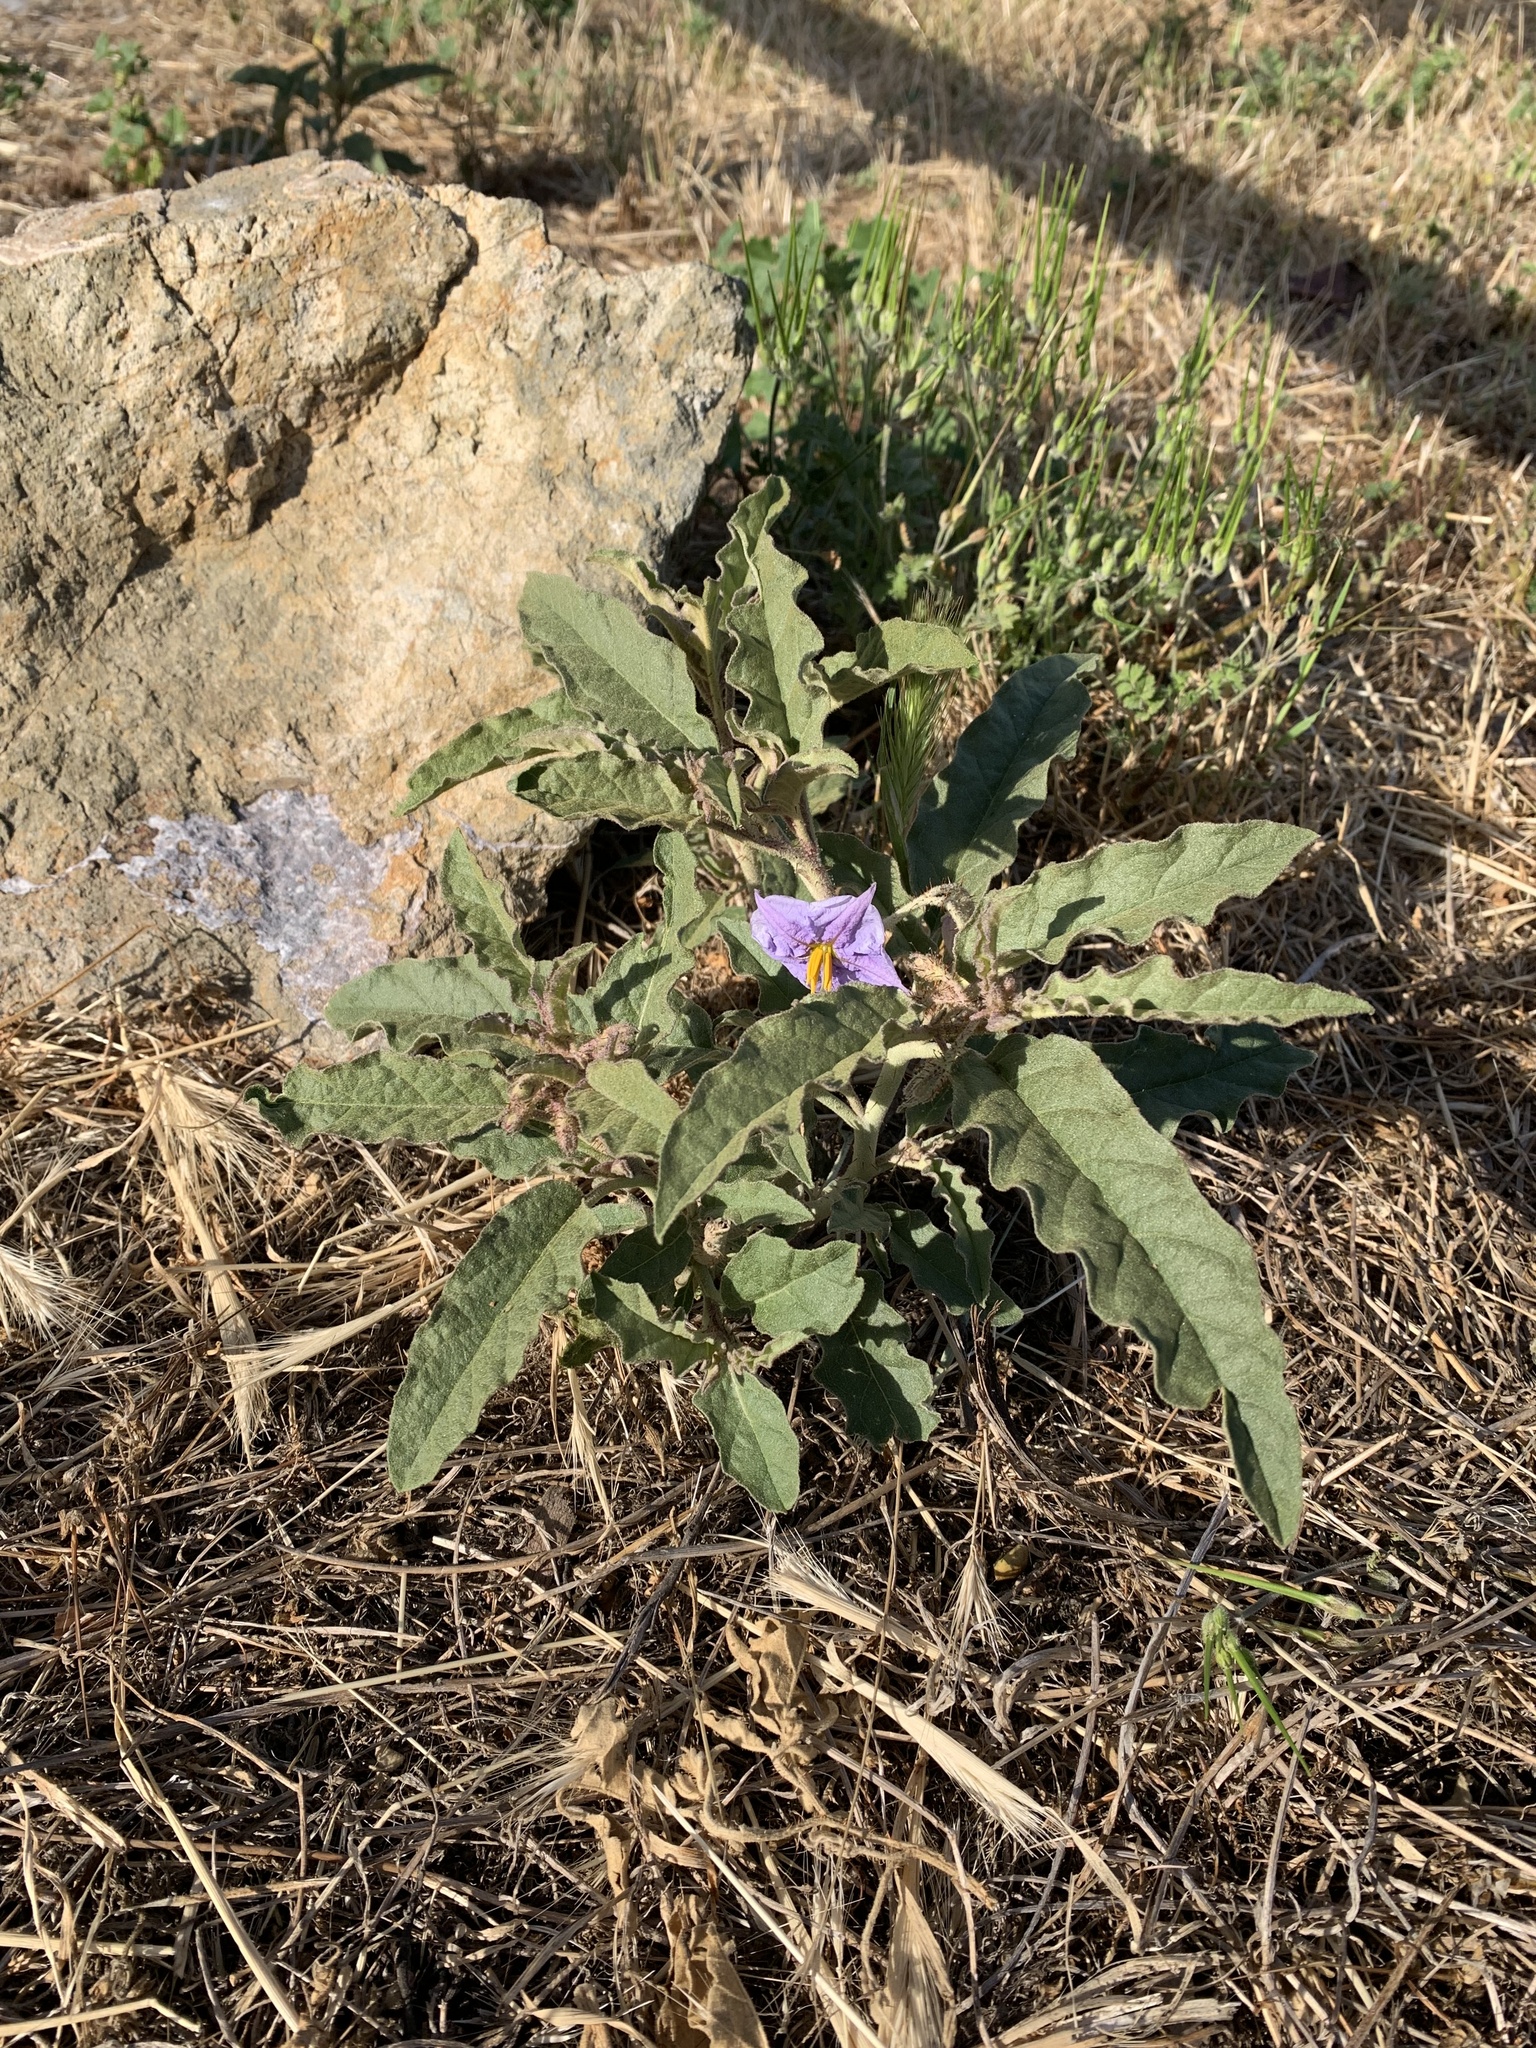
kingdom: Plantae
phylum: Tracheophyta
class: Magnoliopsida
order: Solanales
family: Solanaceae
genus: Solanum
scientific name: Solanum elaeagnifolium
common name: Silverleaf nightshade
